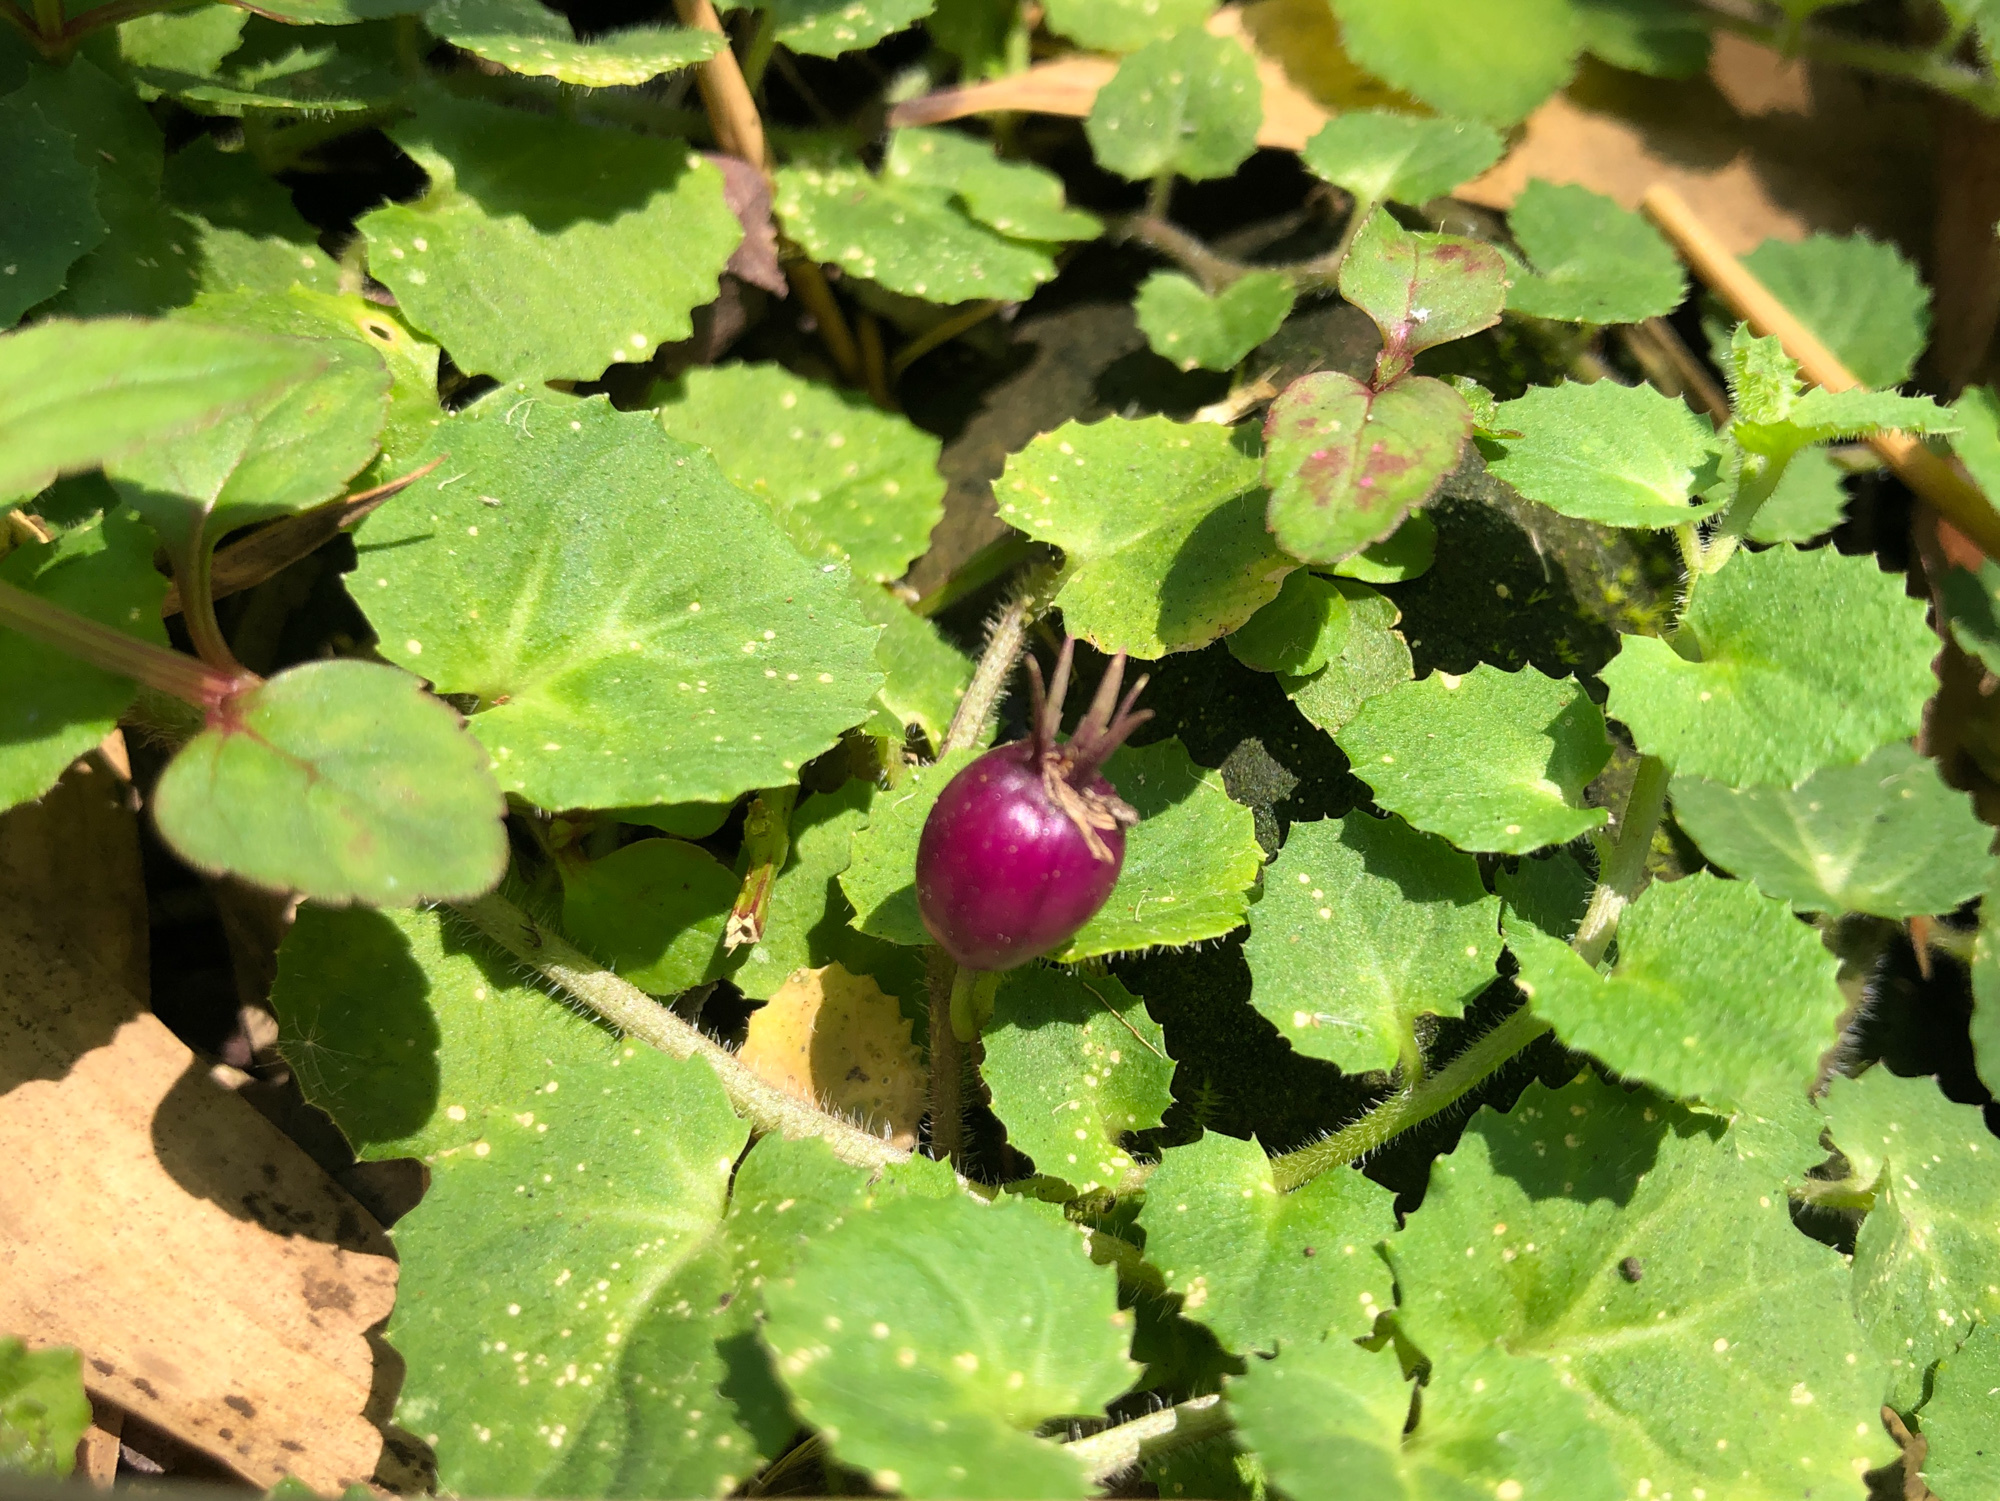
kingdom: Plantae
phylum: Tracheophyta
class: Magnoliopsida
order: Asterales
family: Campanulaceae
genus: Lobelia
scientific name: Lobelia nummularia
